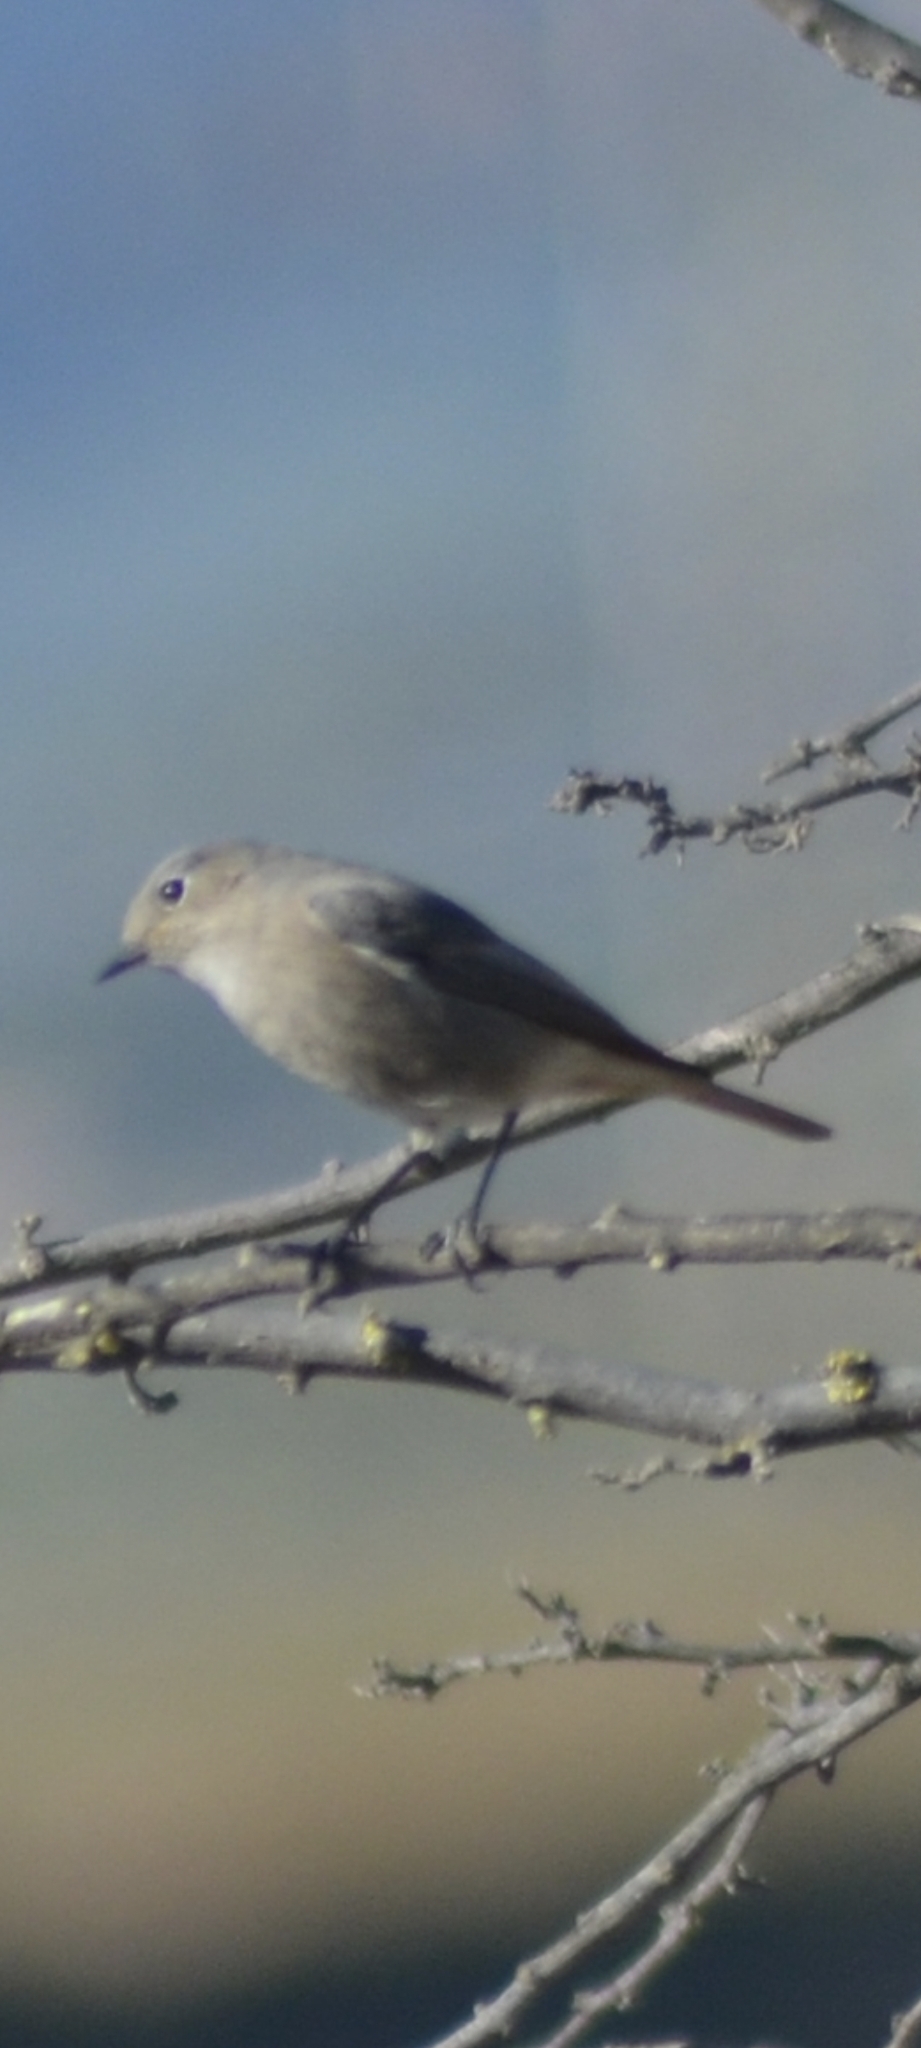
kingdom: Animalia
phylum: Chordata
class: Aves
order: Passeriformes
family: Muscicapidae
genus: Phoenicurus
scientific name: Phoenicurus ochruros
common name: Black redstart
